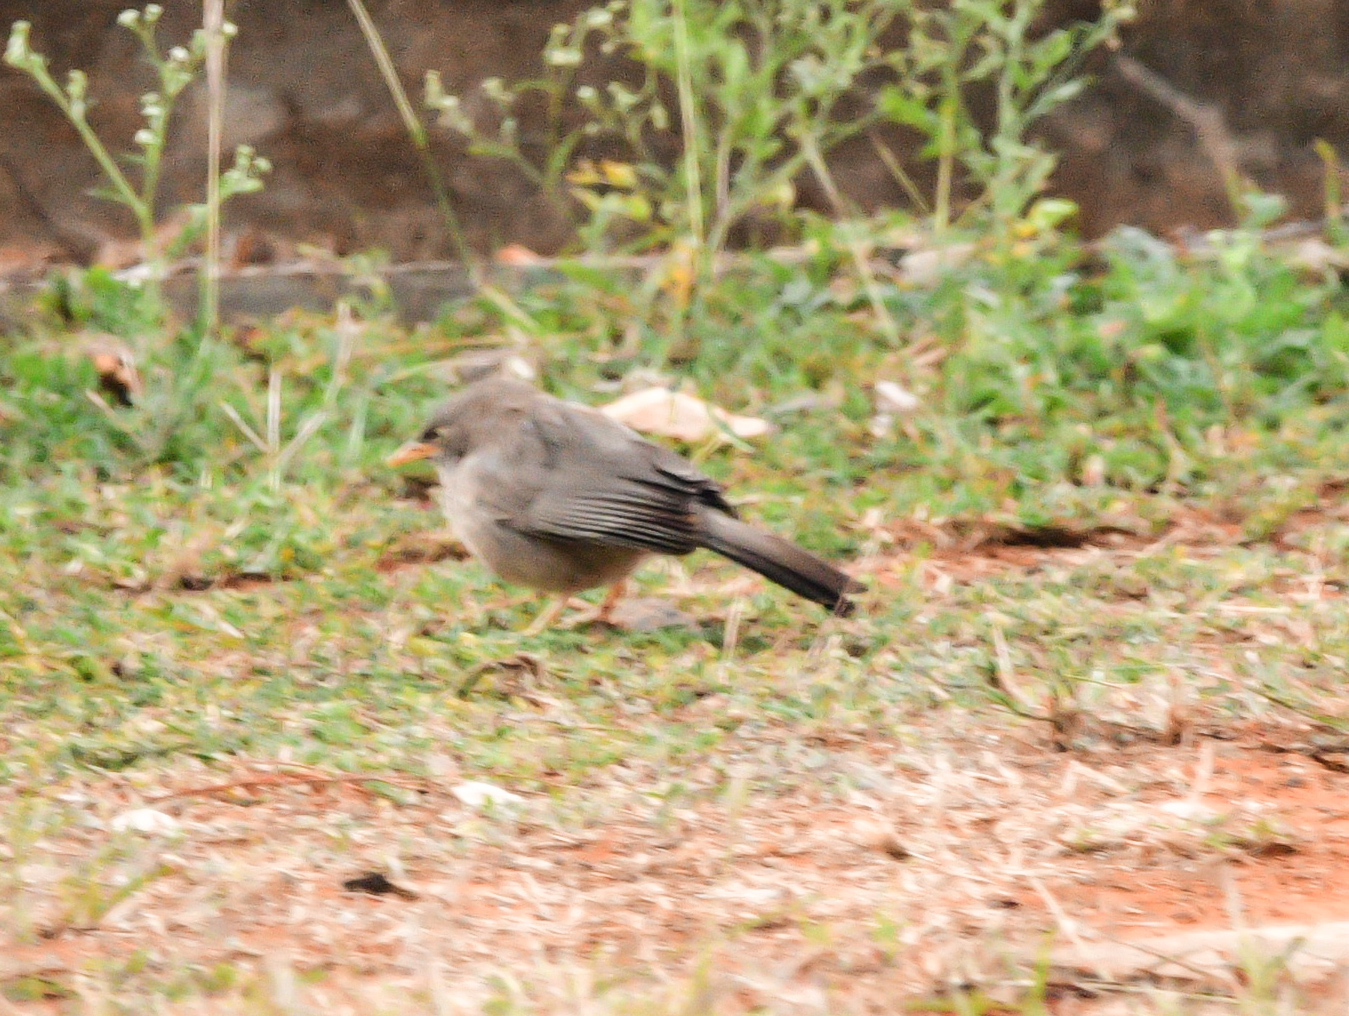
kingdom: Animalia
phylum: Chordata
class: Aves
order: Passeriformes
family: Leiothrichidae
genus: Turdoides
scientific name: Turdoides striata
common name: Jungle babbler
